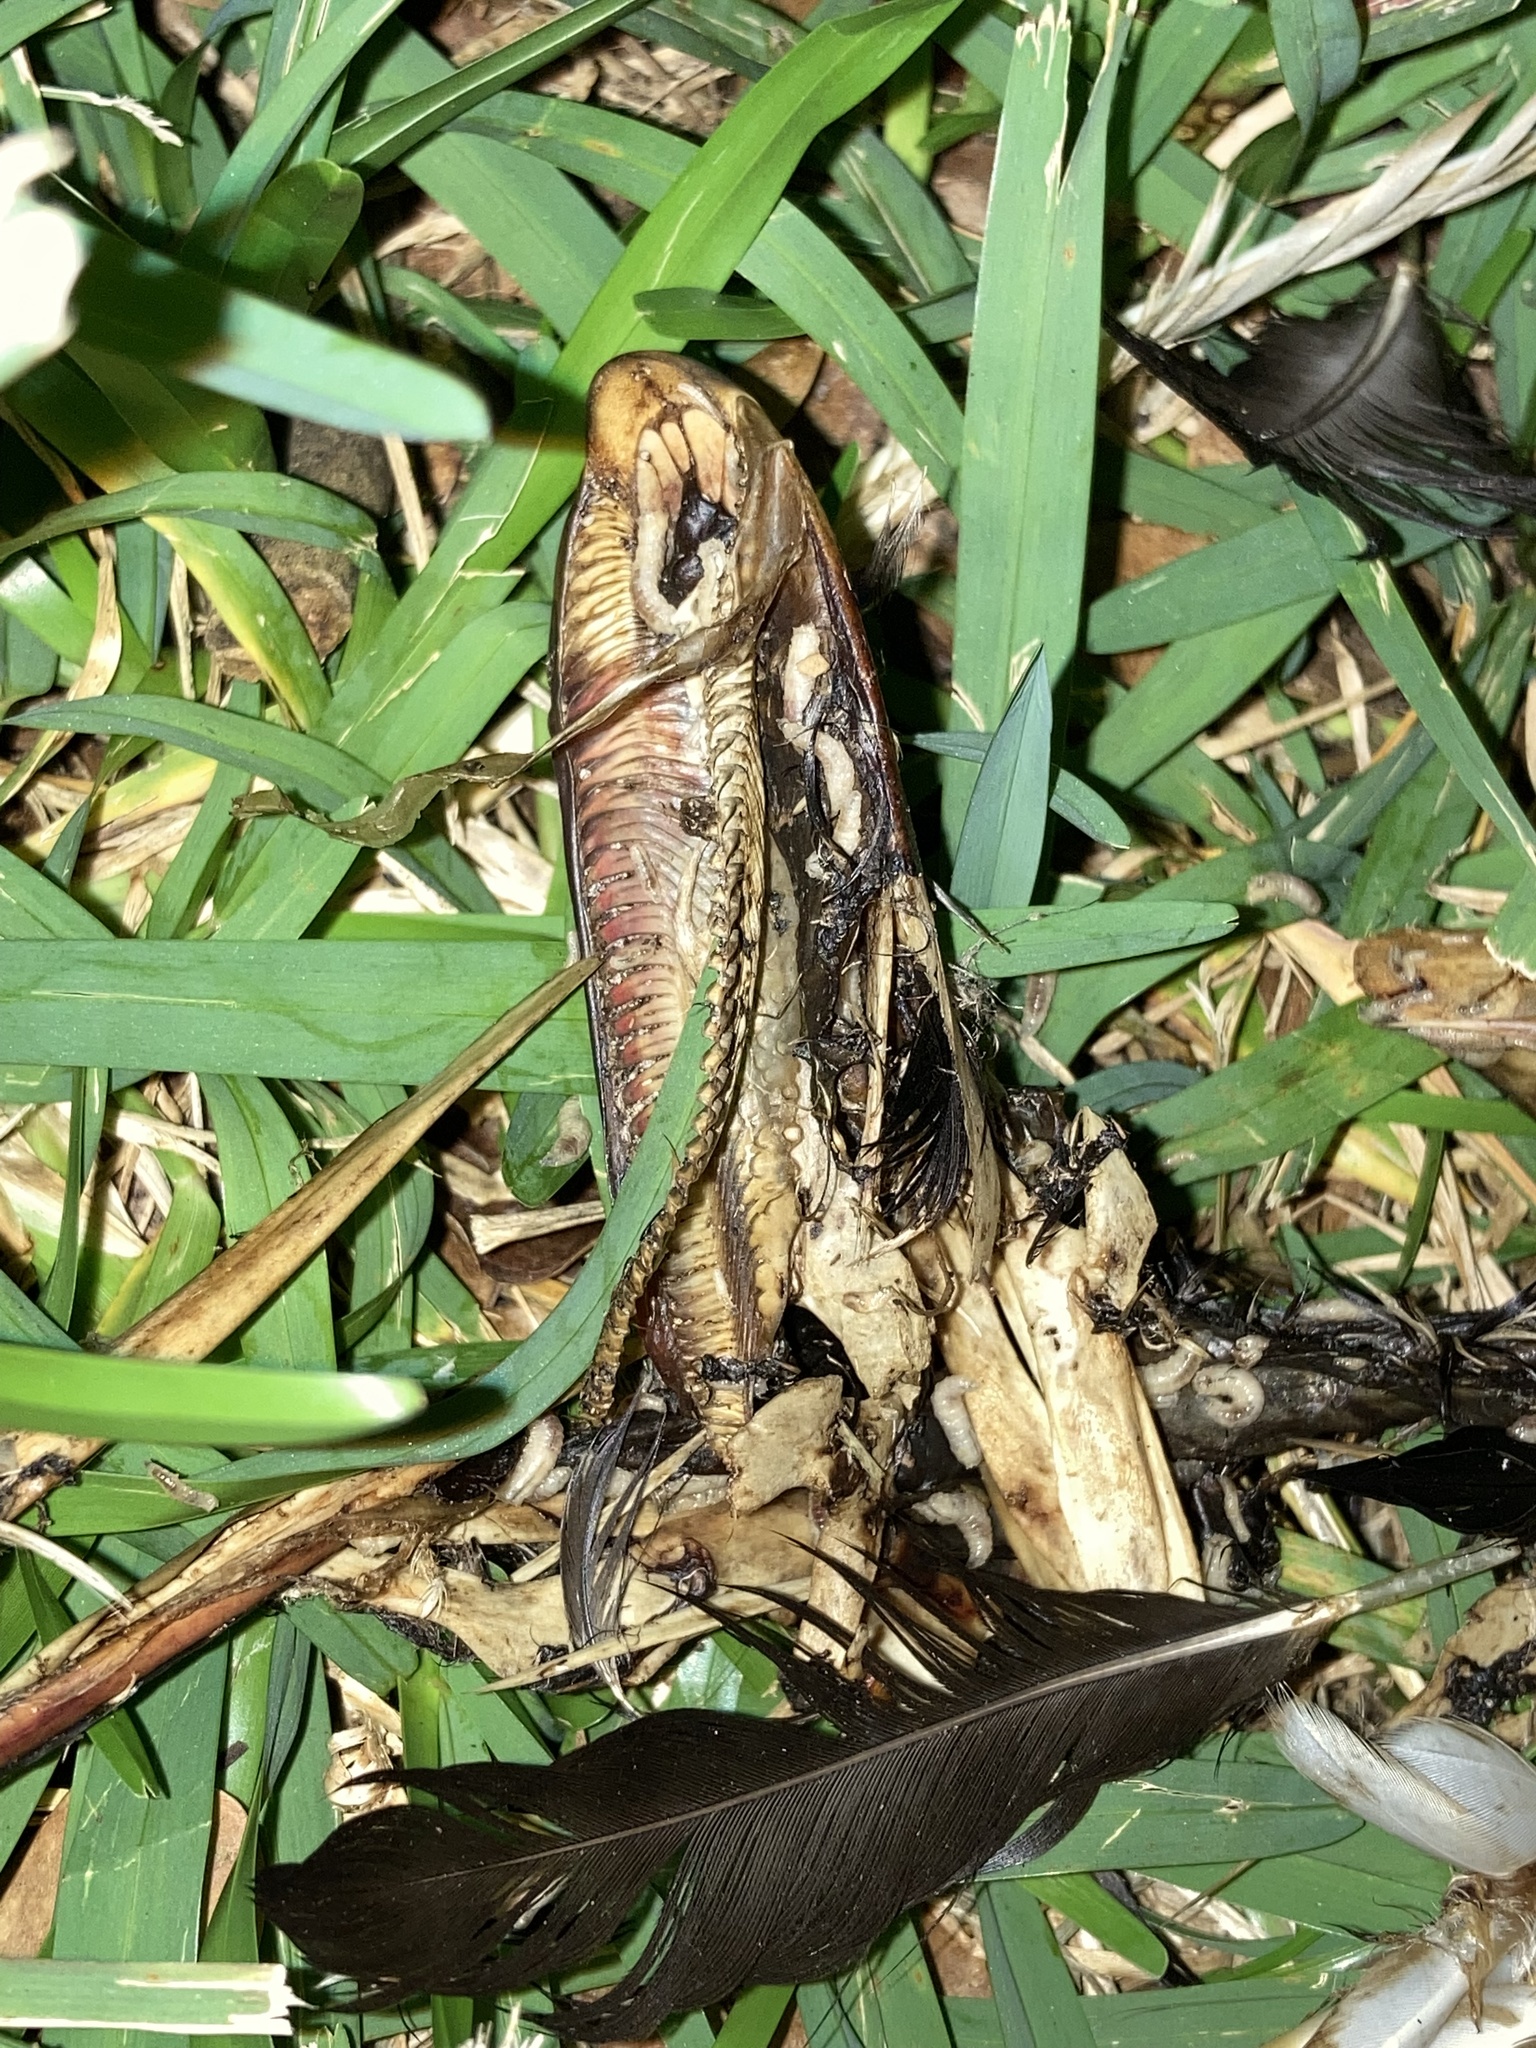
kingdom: Animalia
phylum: Chordata
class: Aves
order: Anseriformes
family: Anatidae
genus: Cairina
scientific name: Cairina moschata
